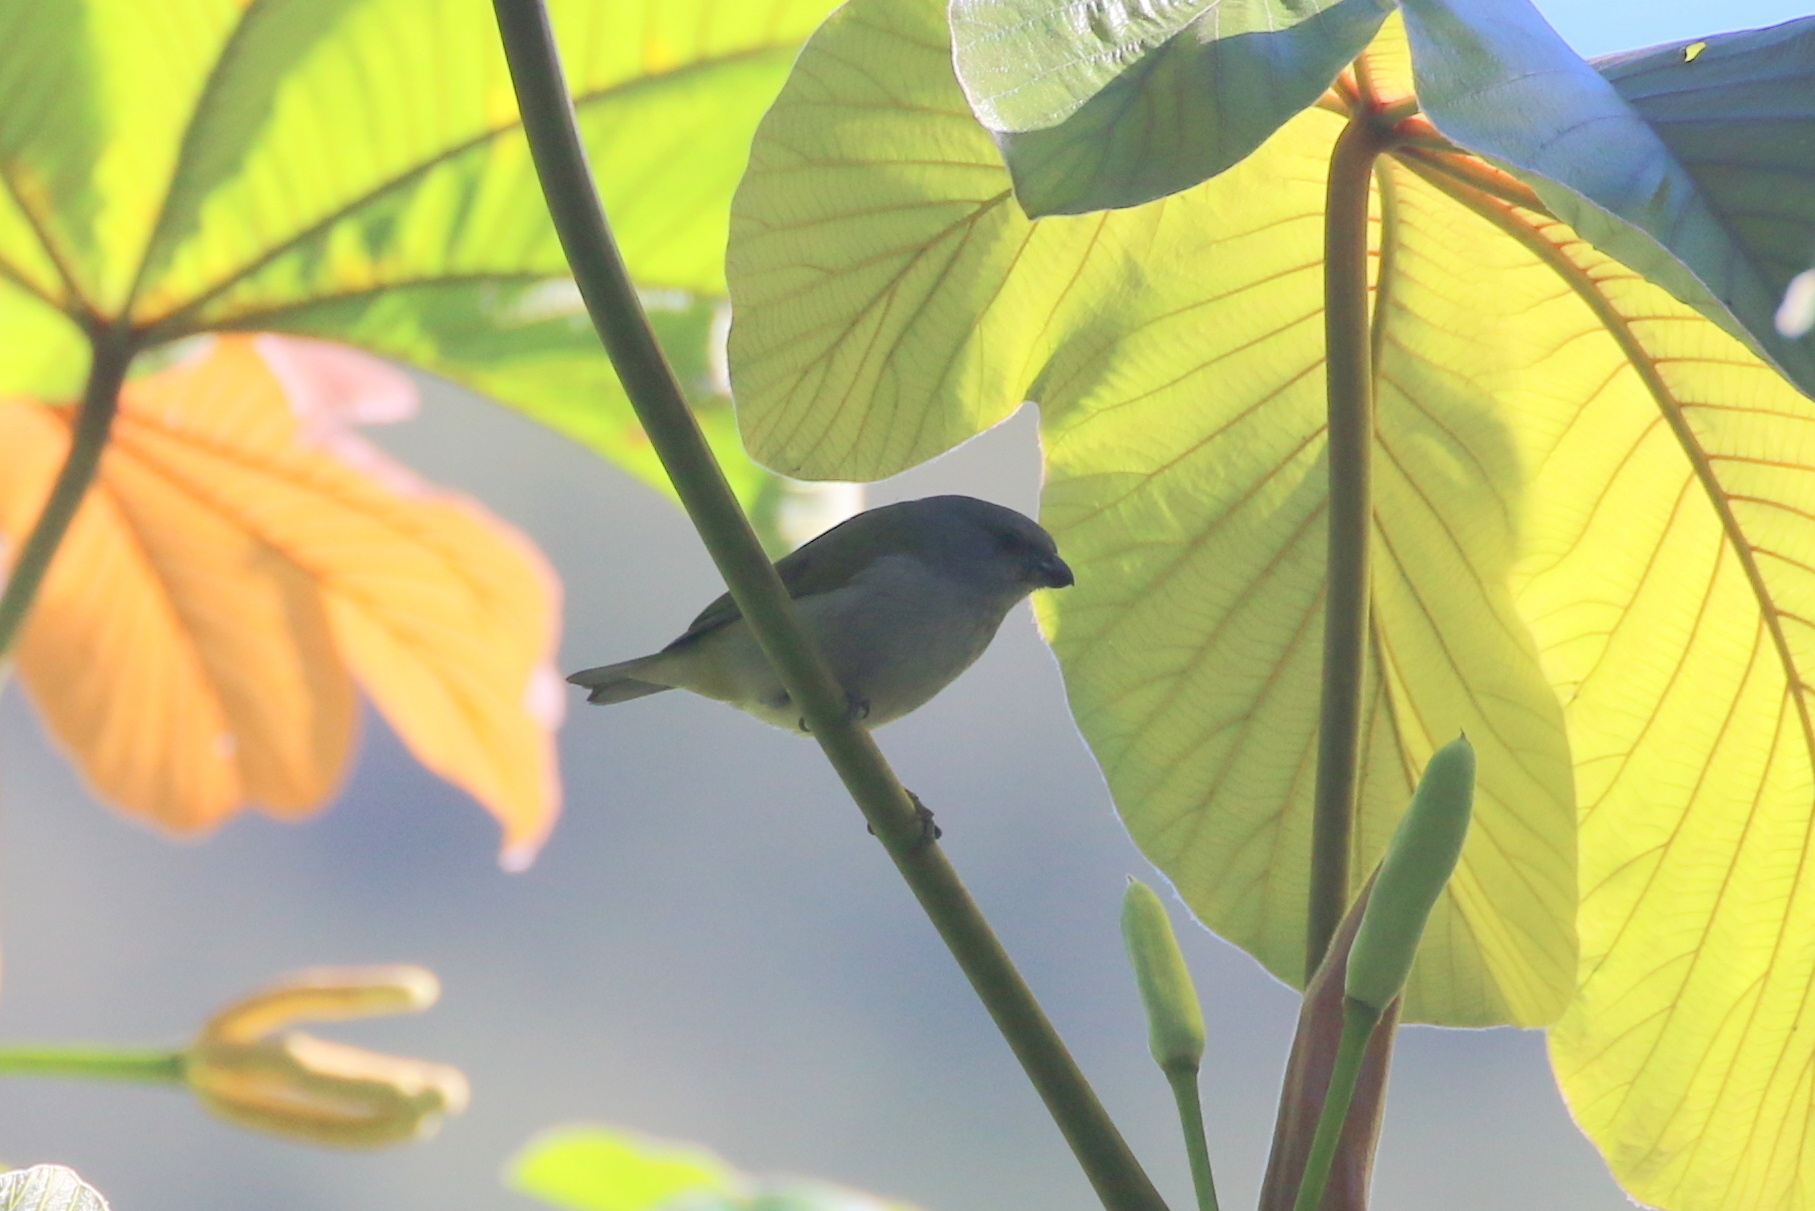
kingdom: Animalia
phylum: Chordata
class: Aves
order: Passeriformes
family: Fringillidae
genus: Euphonia
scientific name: Euphonia jamaica
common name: Jamaican euphonia
